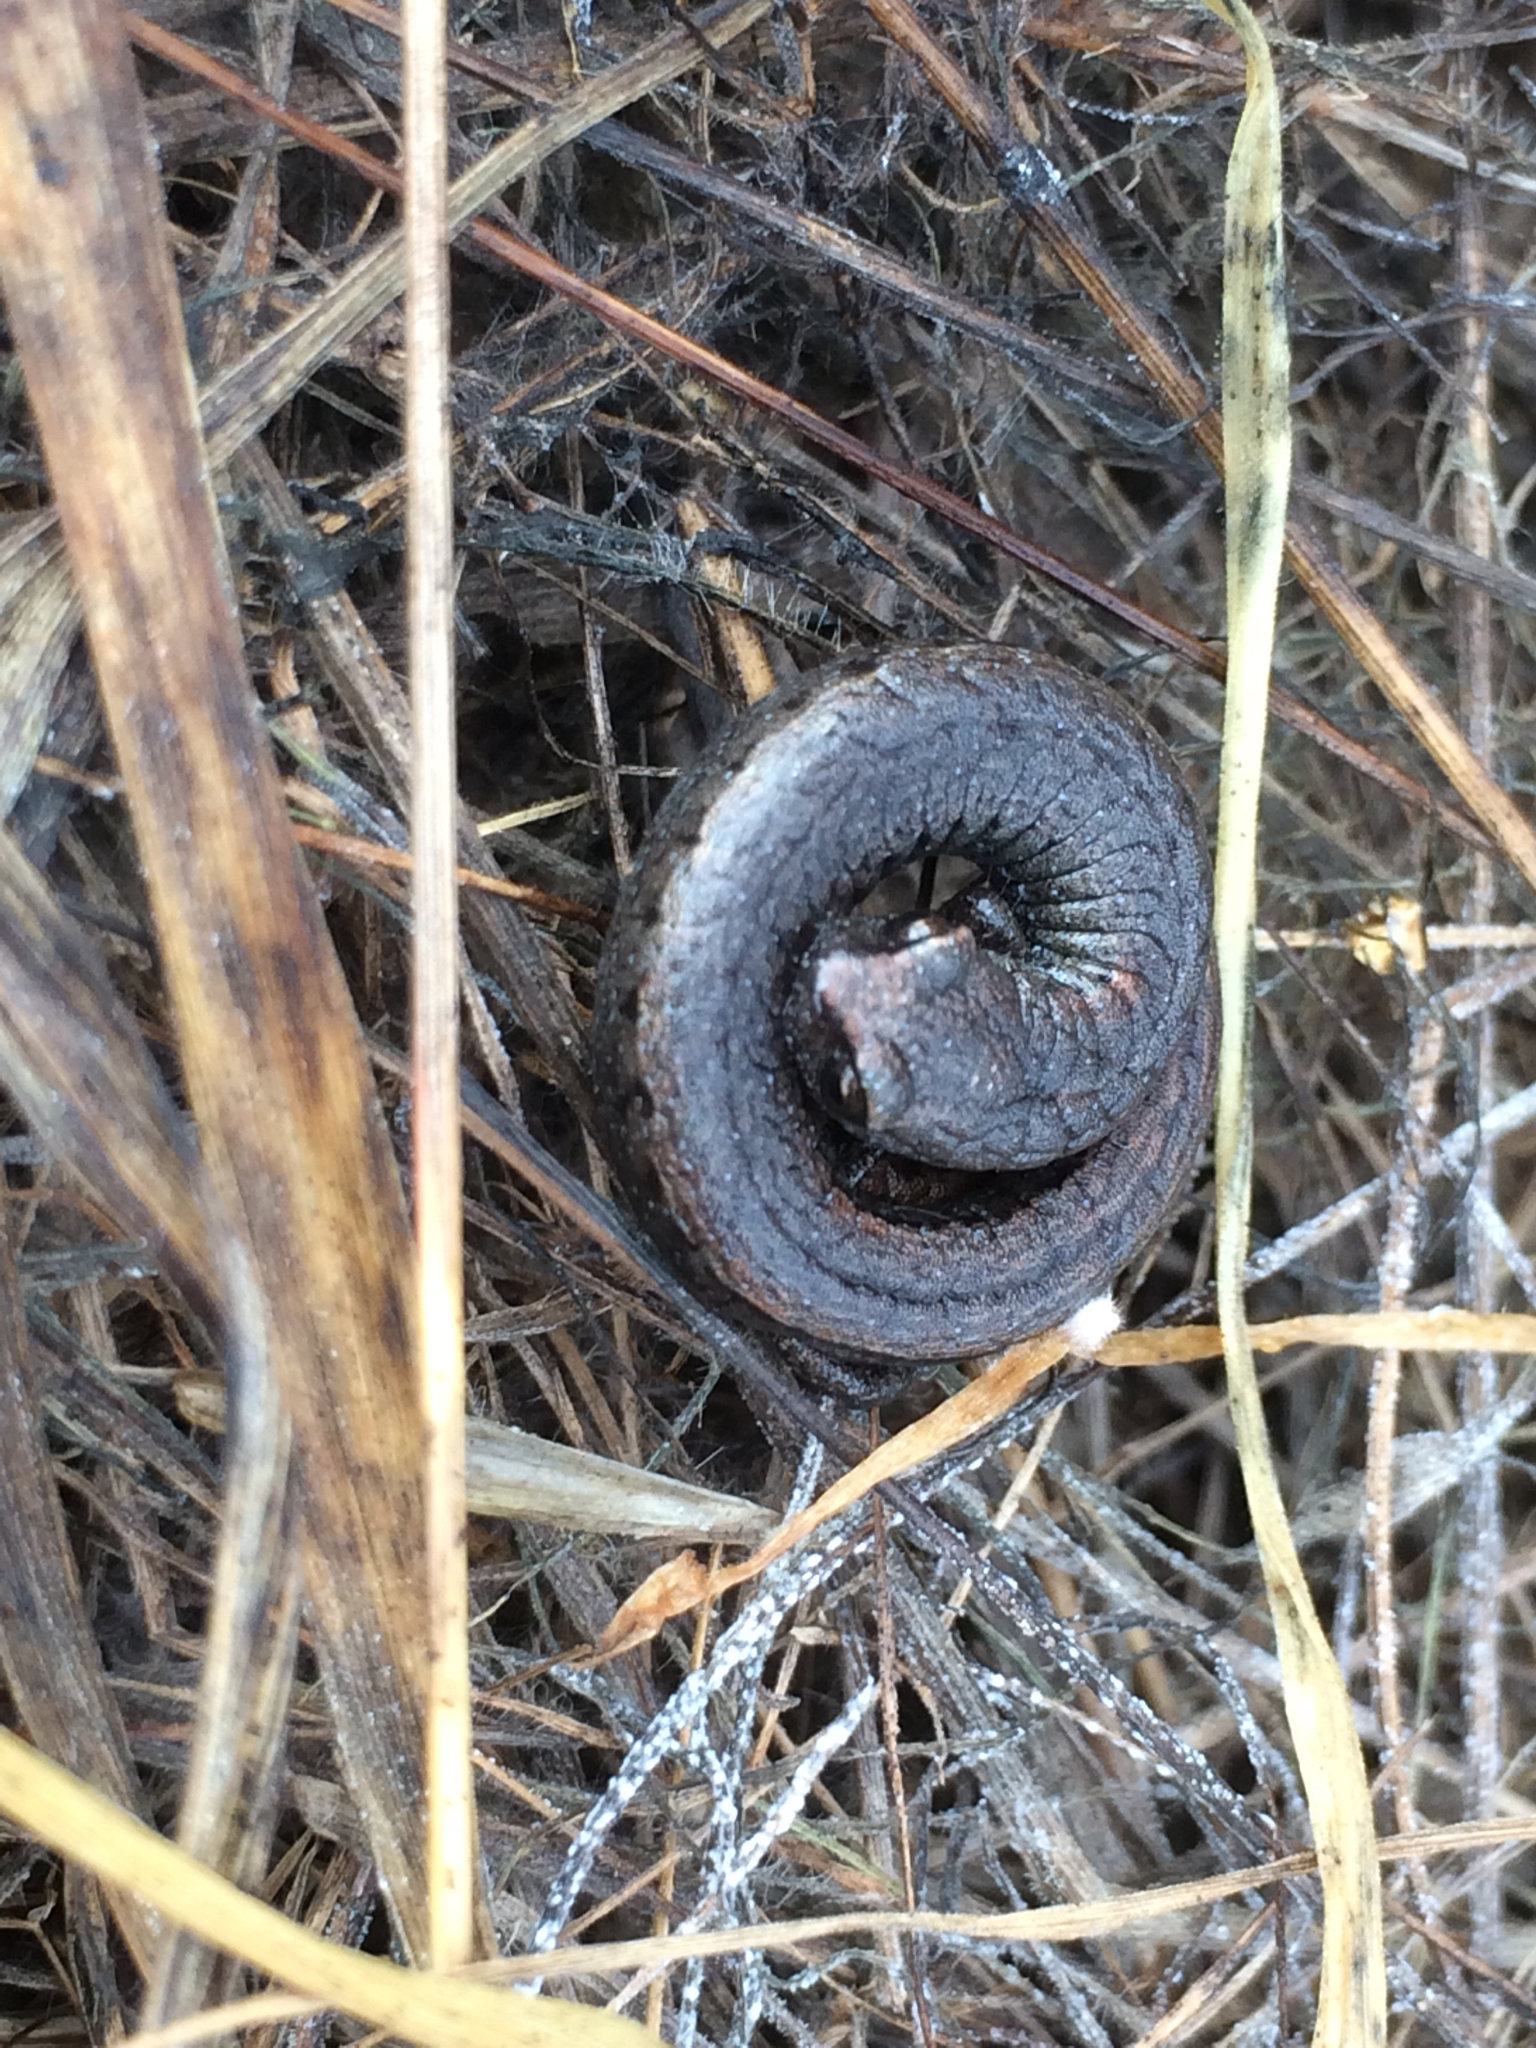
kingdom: Animalia
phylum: Chordata
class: Amphibia
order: Caudata
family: Plethodontidae
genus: Batrachoseps
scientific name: Batrachoseps attenuatus
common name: California slender salamander
